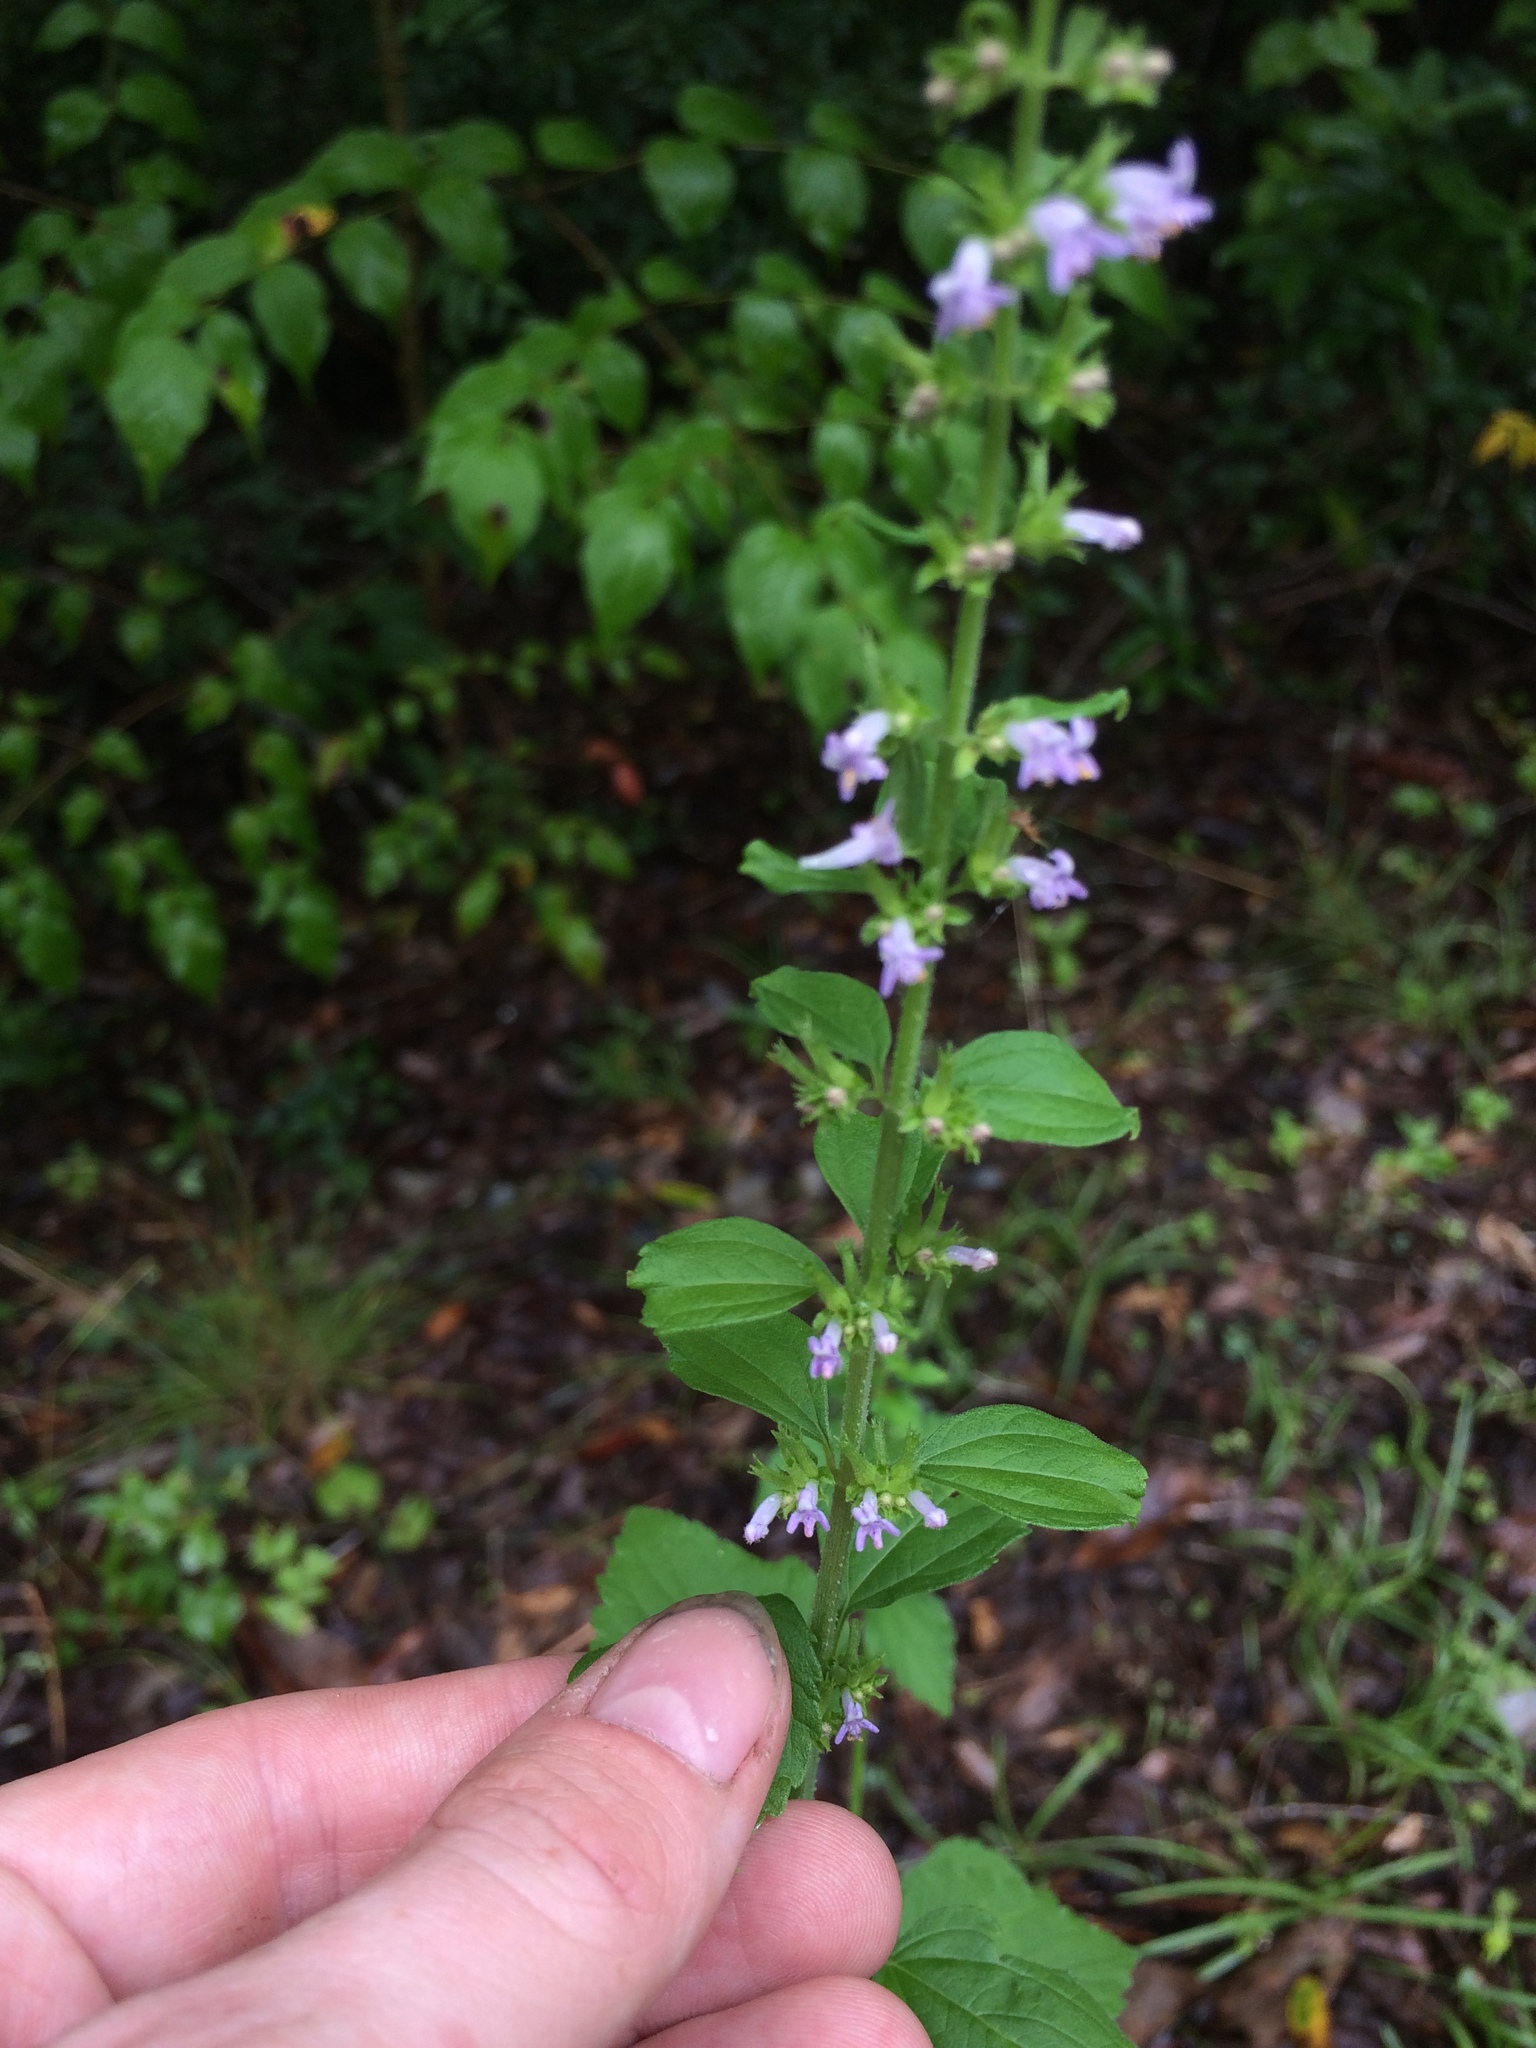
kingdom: Plantae
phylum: Tracheophyta
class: Magnoliopsida
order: Lamiales
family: Lamiaceae
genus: Cantinoa
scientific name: Cantinoa mutabilis
